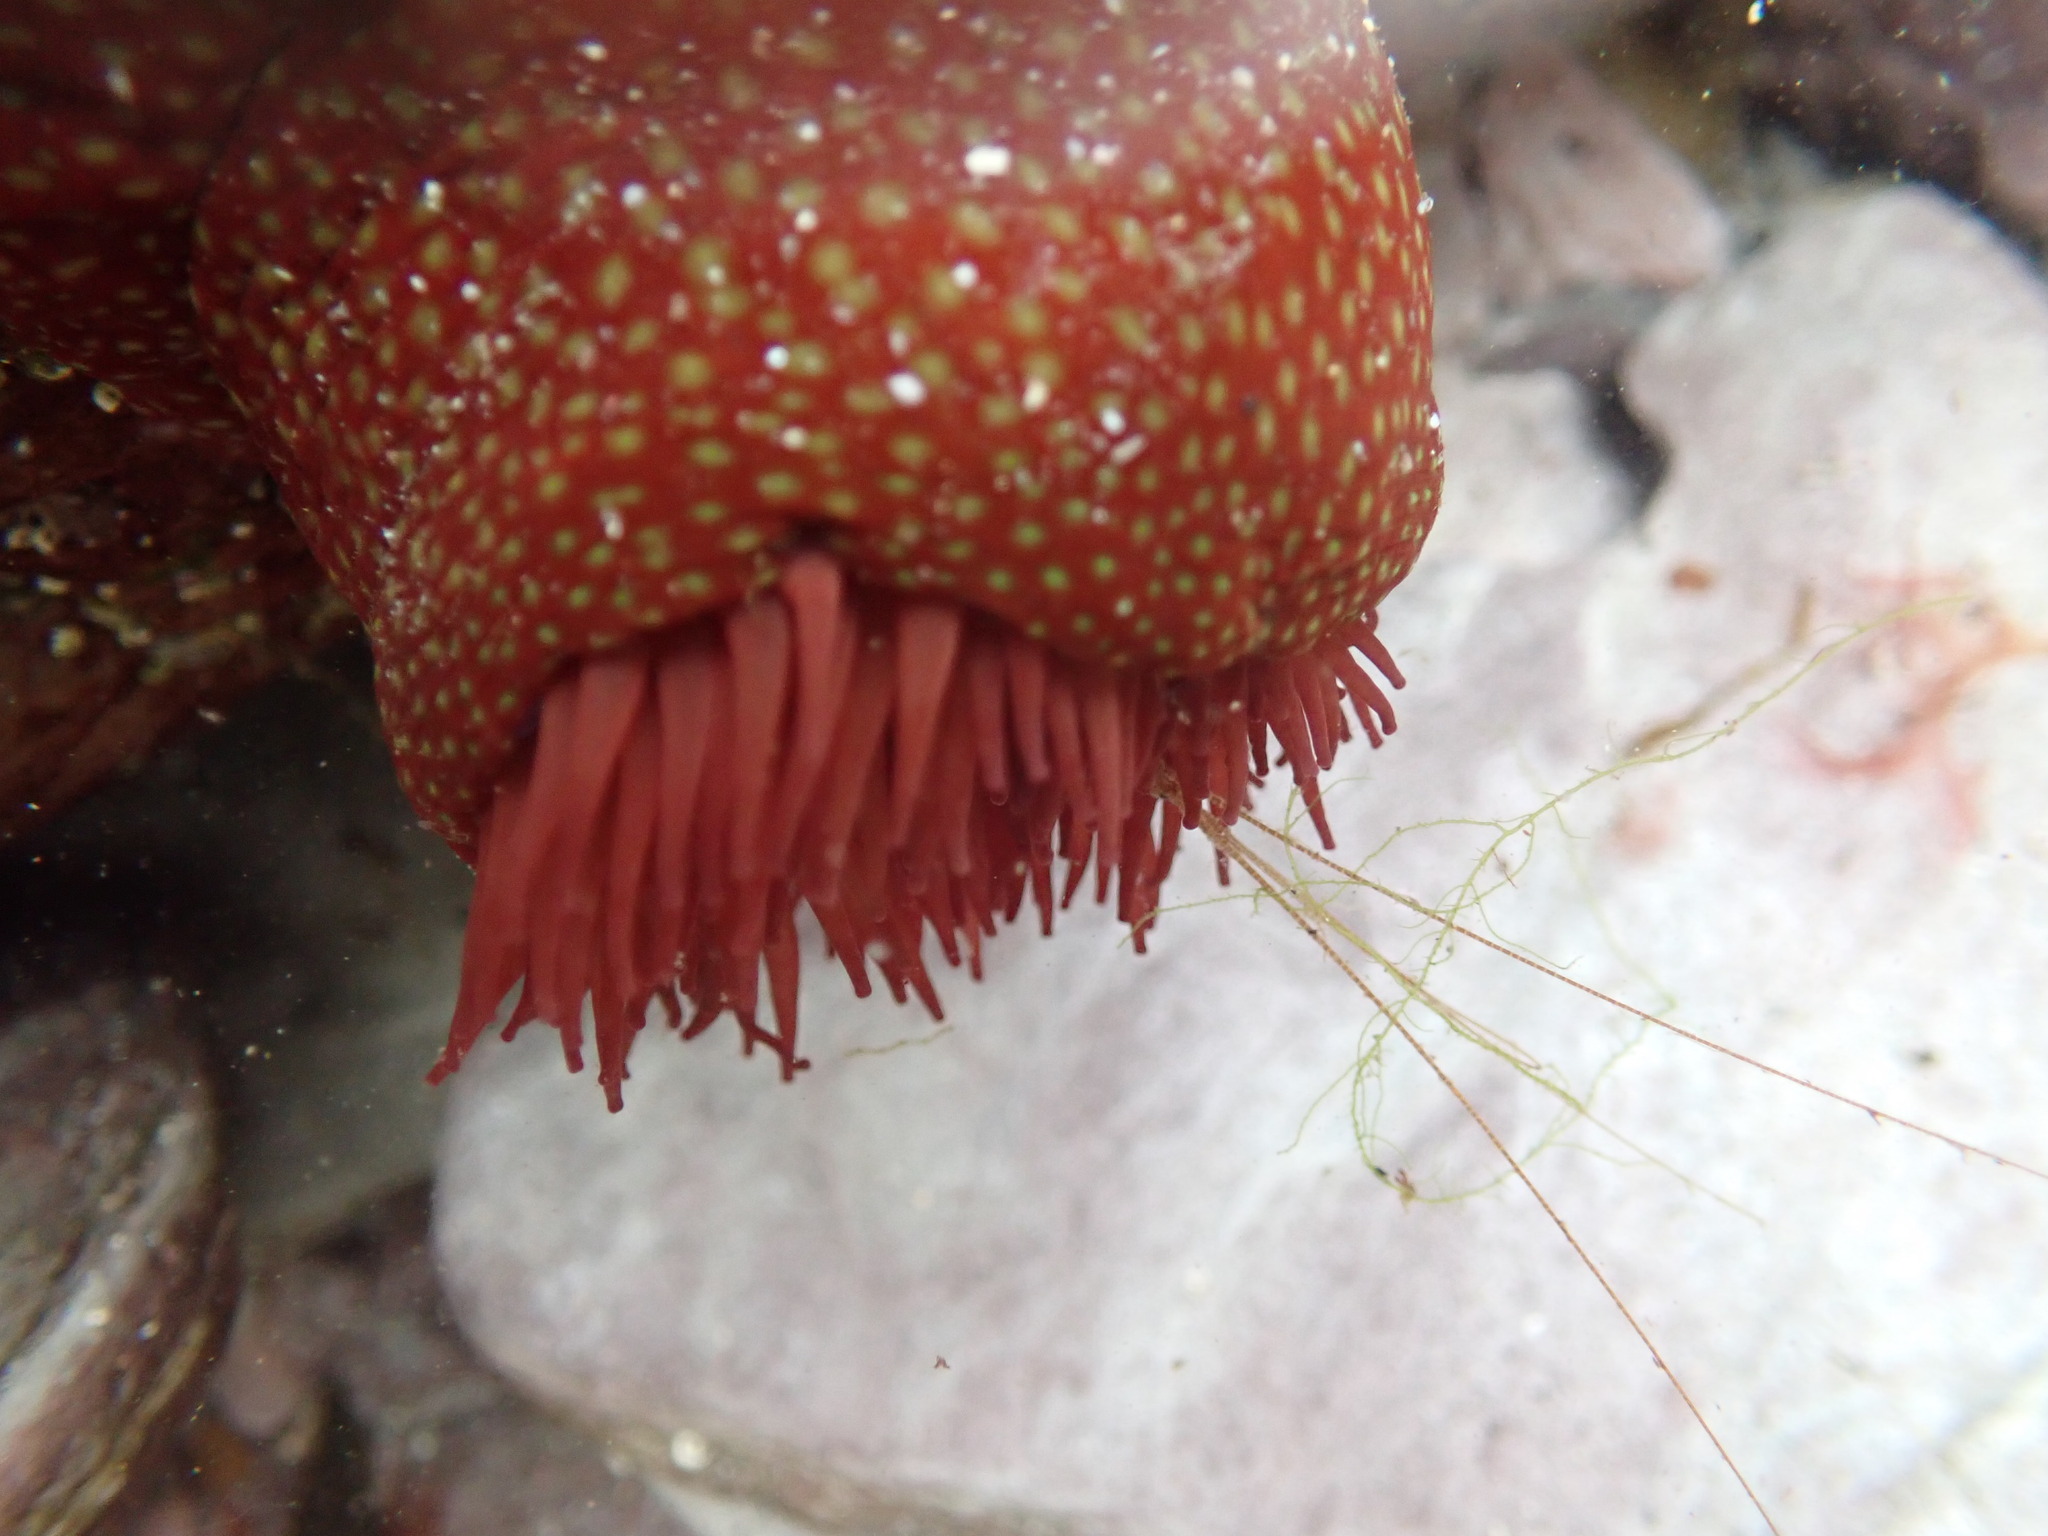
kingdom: Animalia
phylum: Cnidaria
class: Anthozoa
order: Actiniaria
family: Actiniidae
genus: Actinia
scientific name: Actinia fragacea
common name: Strawberry anemone
